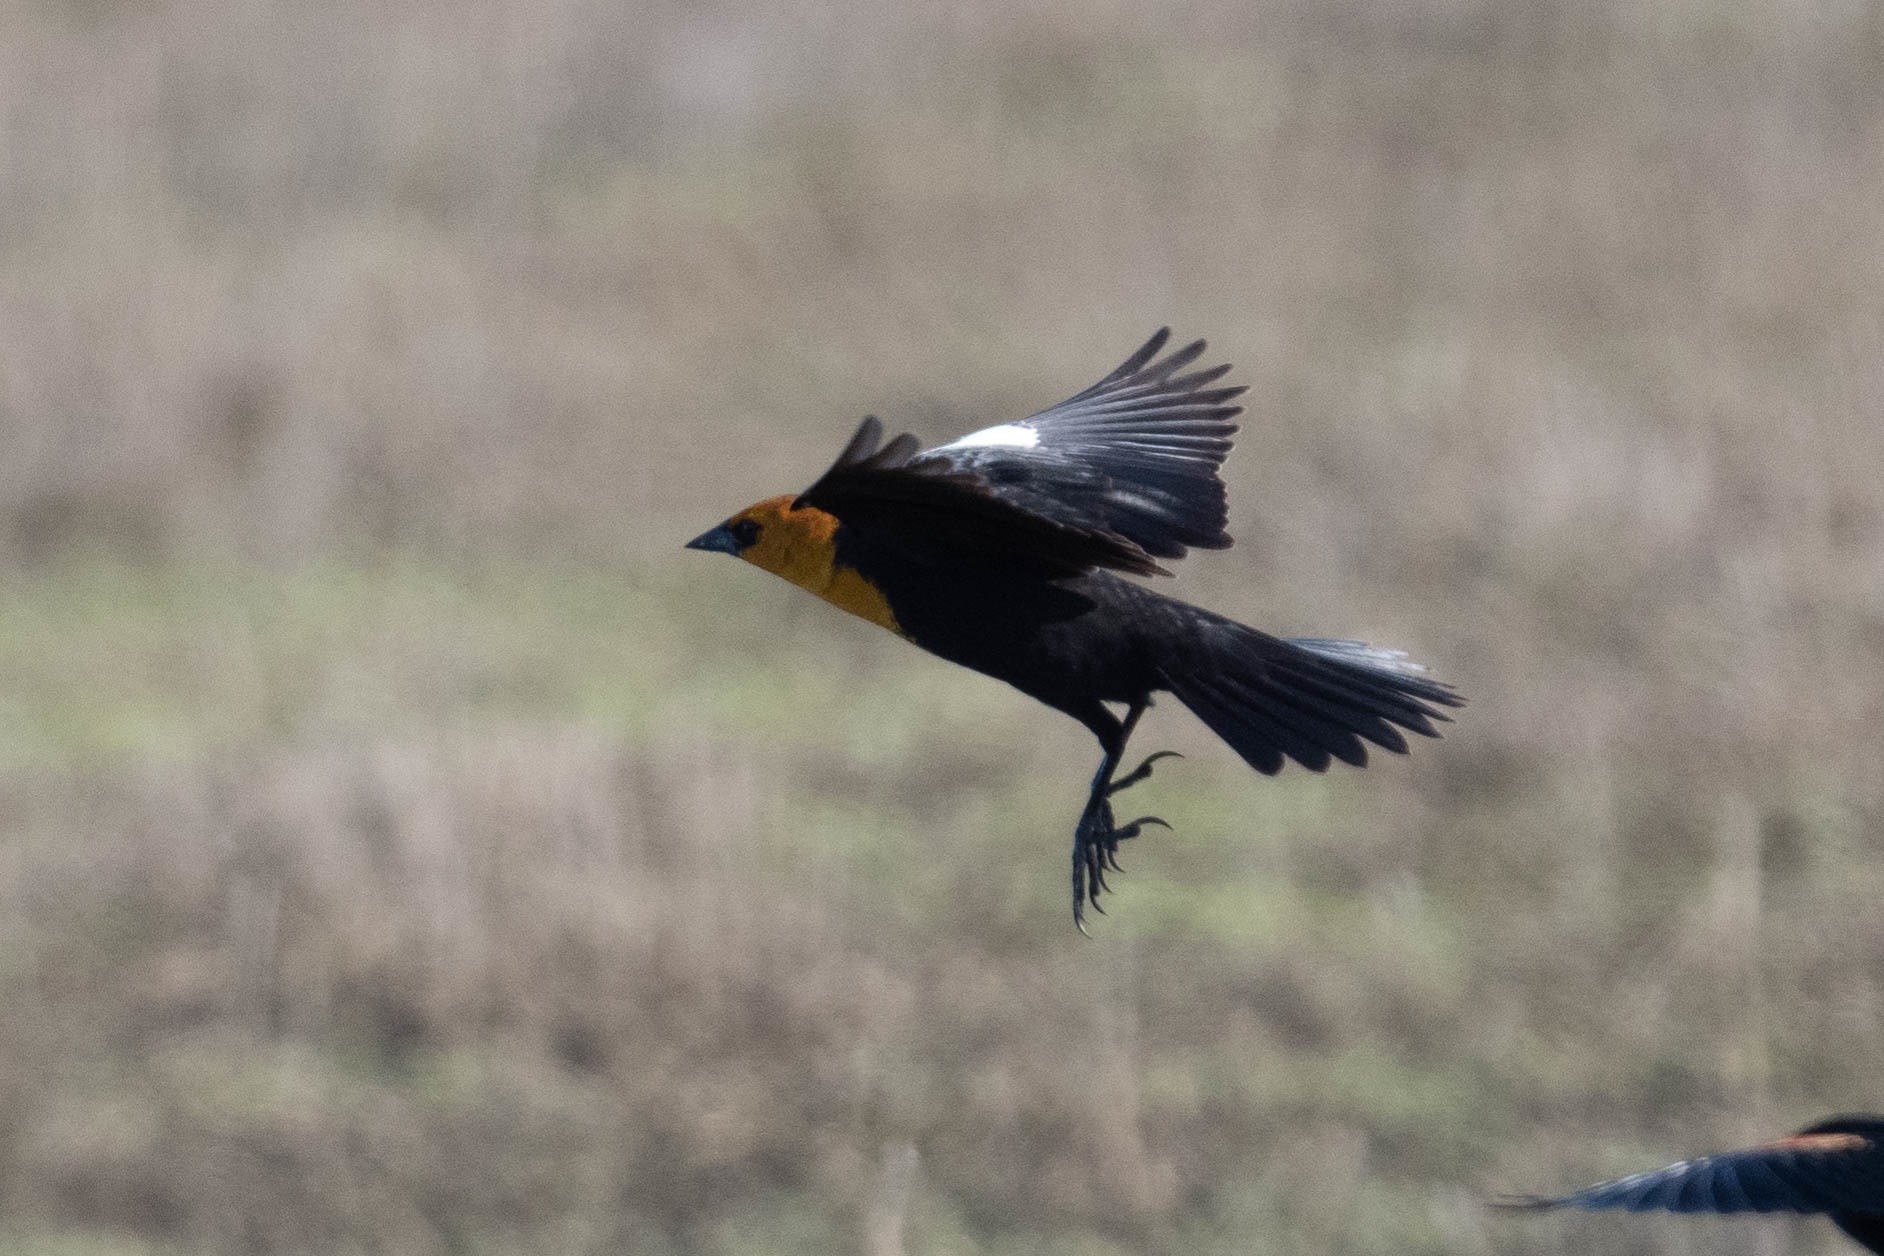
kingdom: Animalia
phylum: Chordata
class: Aves
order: Passeriformes
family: Icteridae
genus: Xanthocephalus
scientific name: Xanthocephalus xanthocephalus
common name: Yellow-headed blackbird
